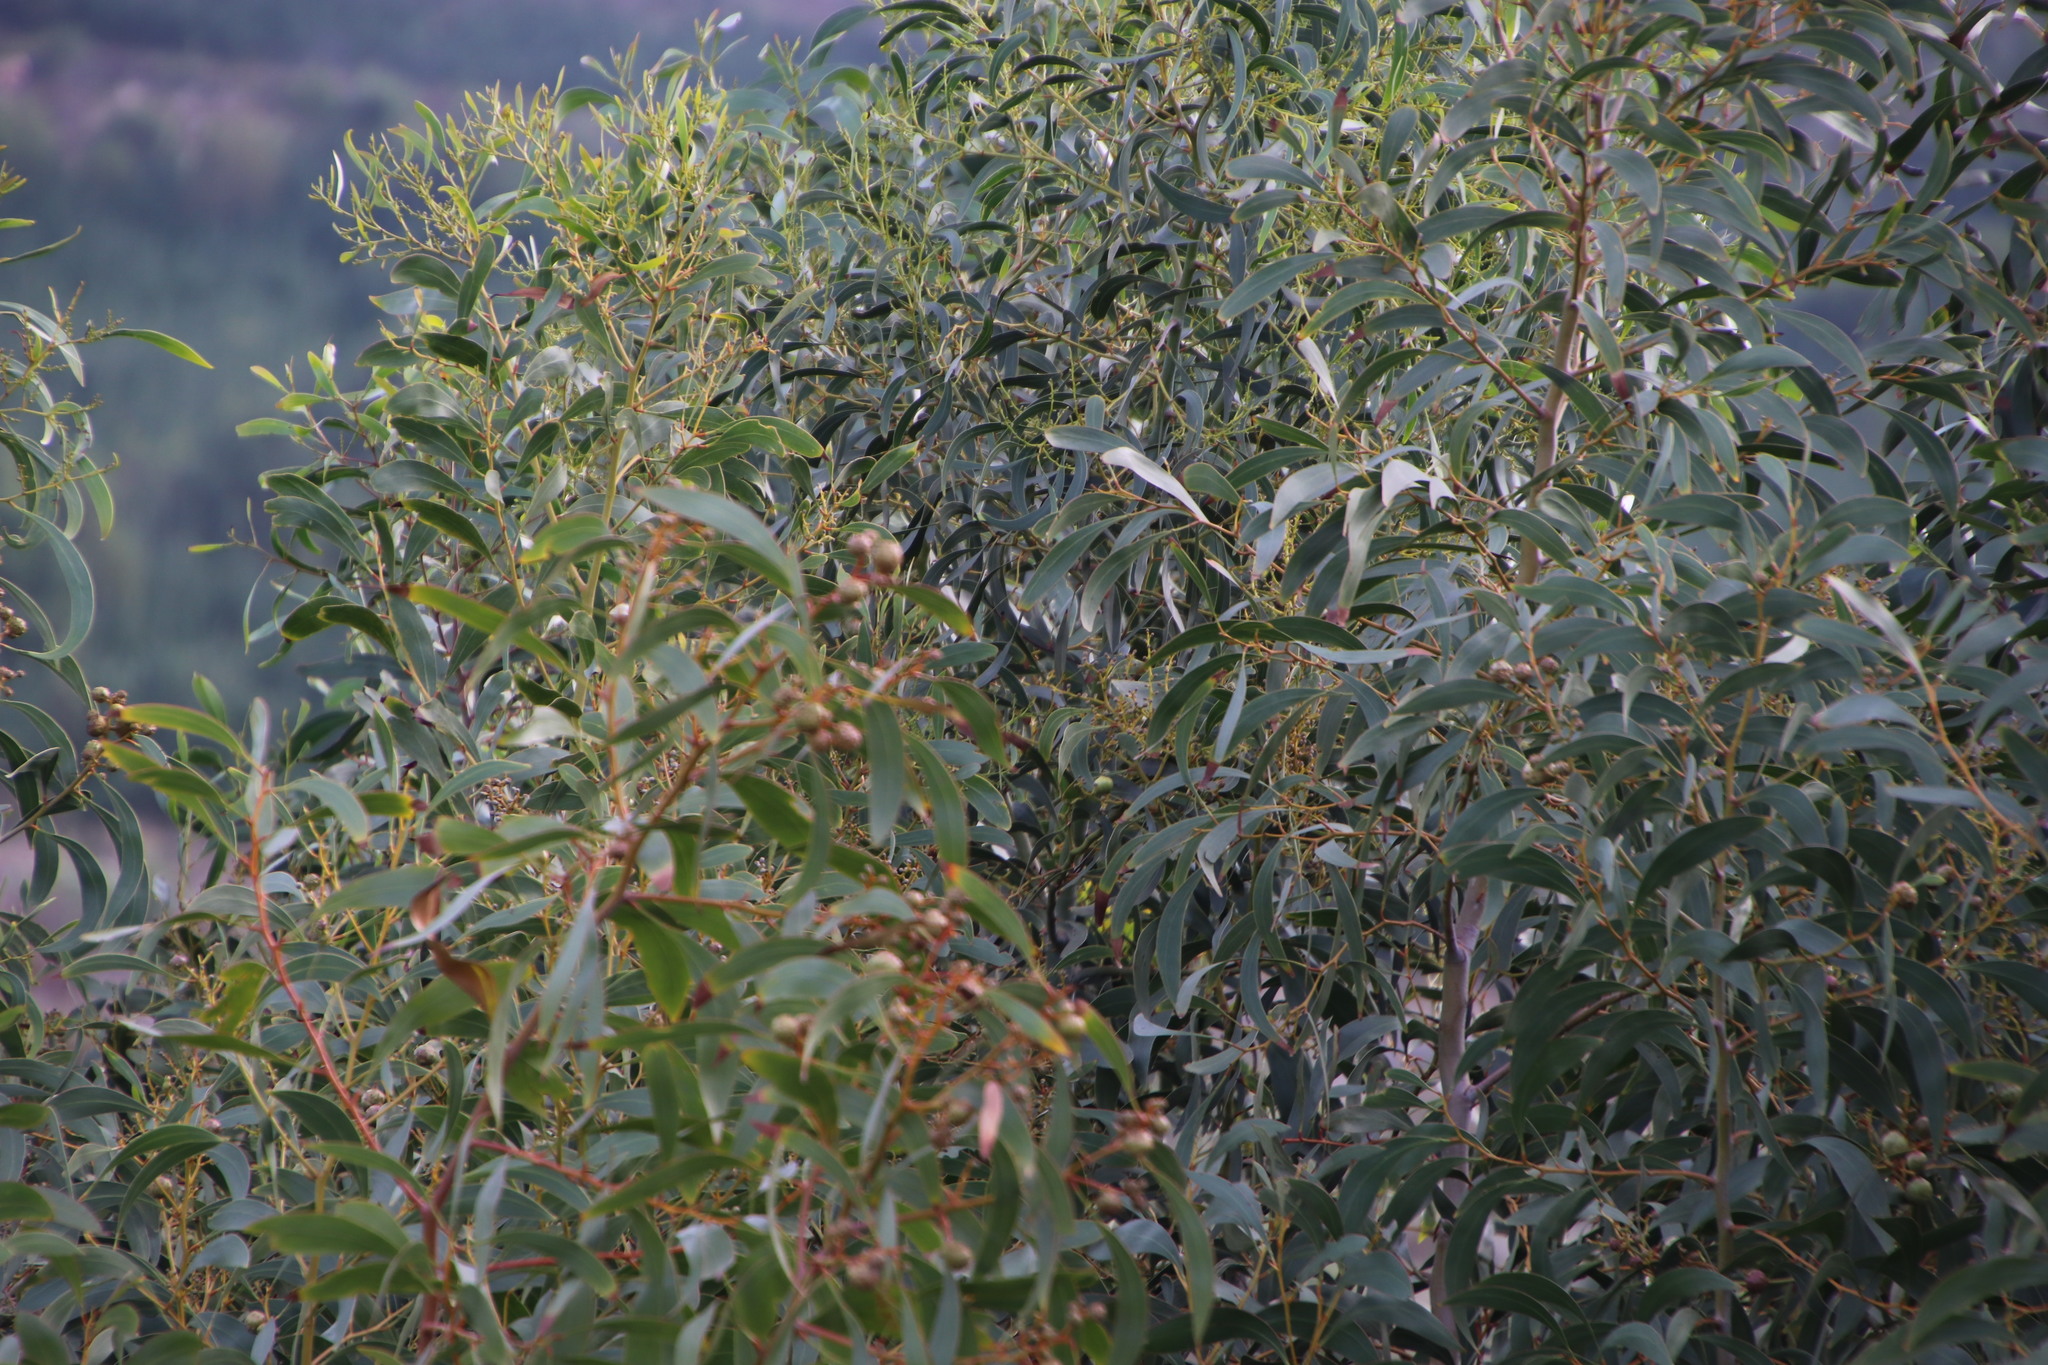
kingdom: Plantae
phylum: Tracheophyta
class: Magnoliopsida
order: Fabales
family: Fabaceae
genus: Acacia
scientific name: Acacia pycnantha
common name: Golden wattle
